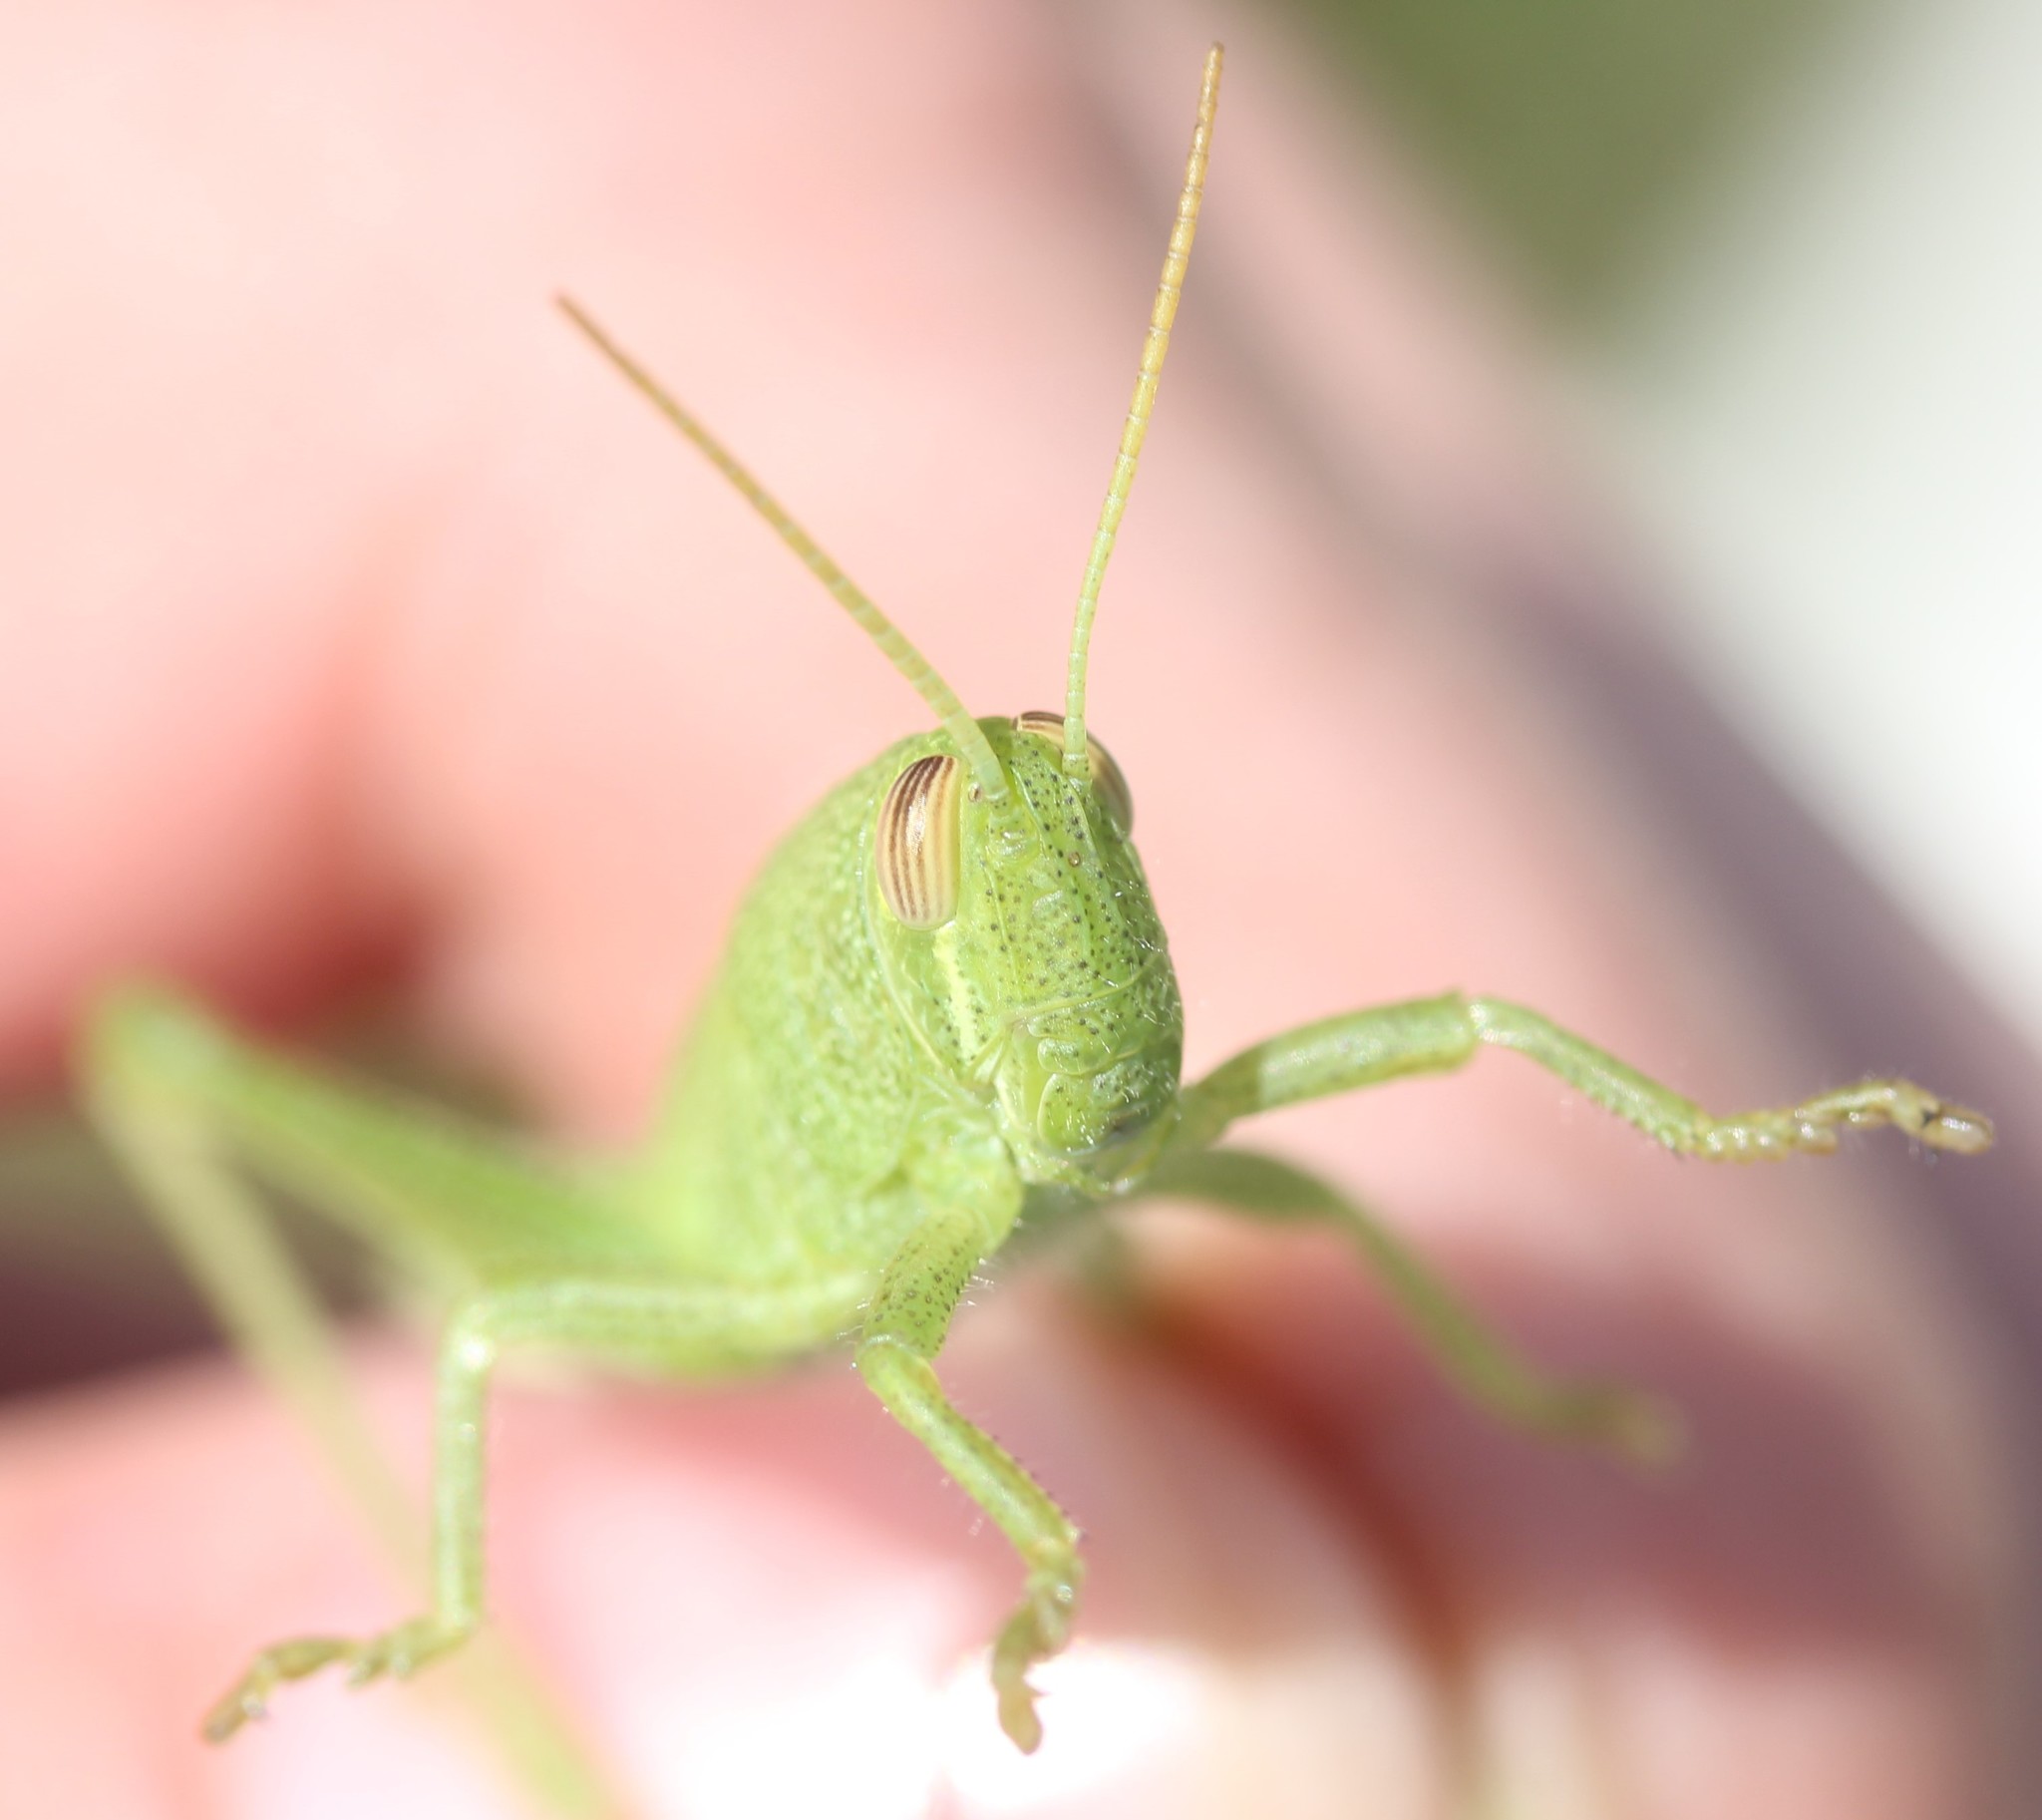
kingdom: Animalia
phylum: Arthropoda
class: Insecta
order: Orthoptera
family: Acrididae
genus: Schistocerca
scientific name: Schistocerca lineata
